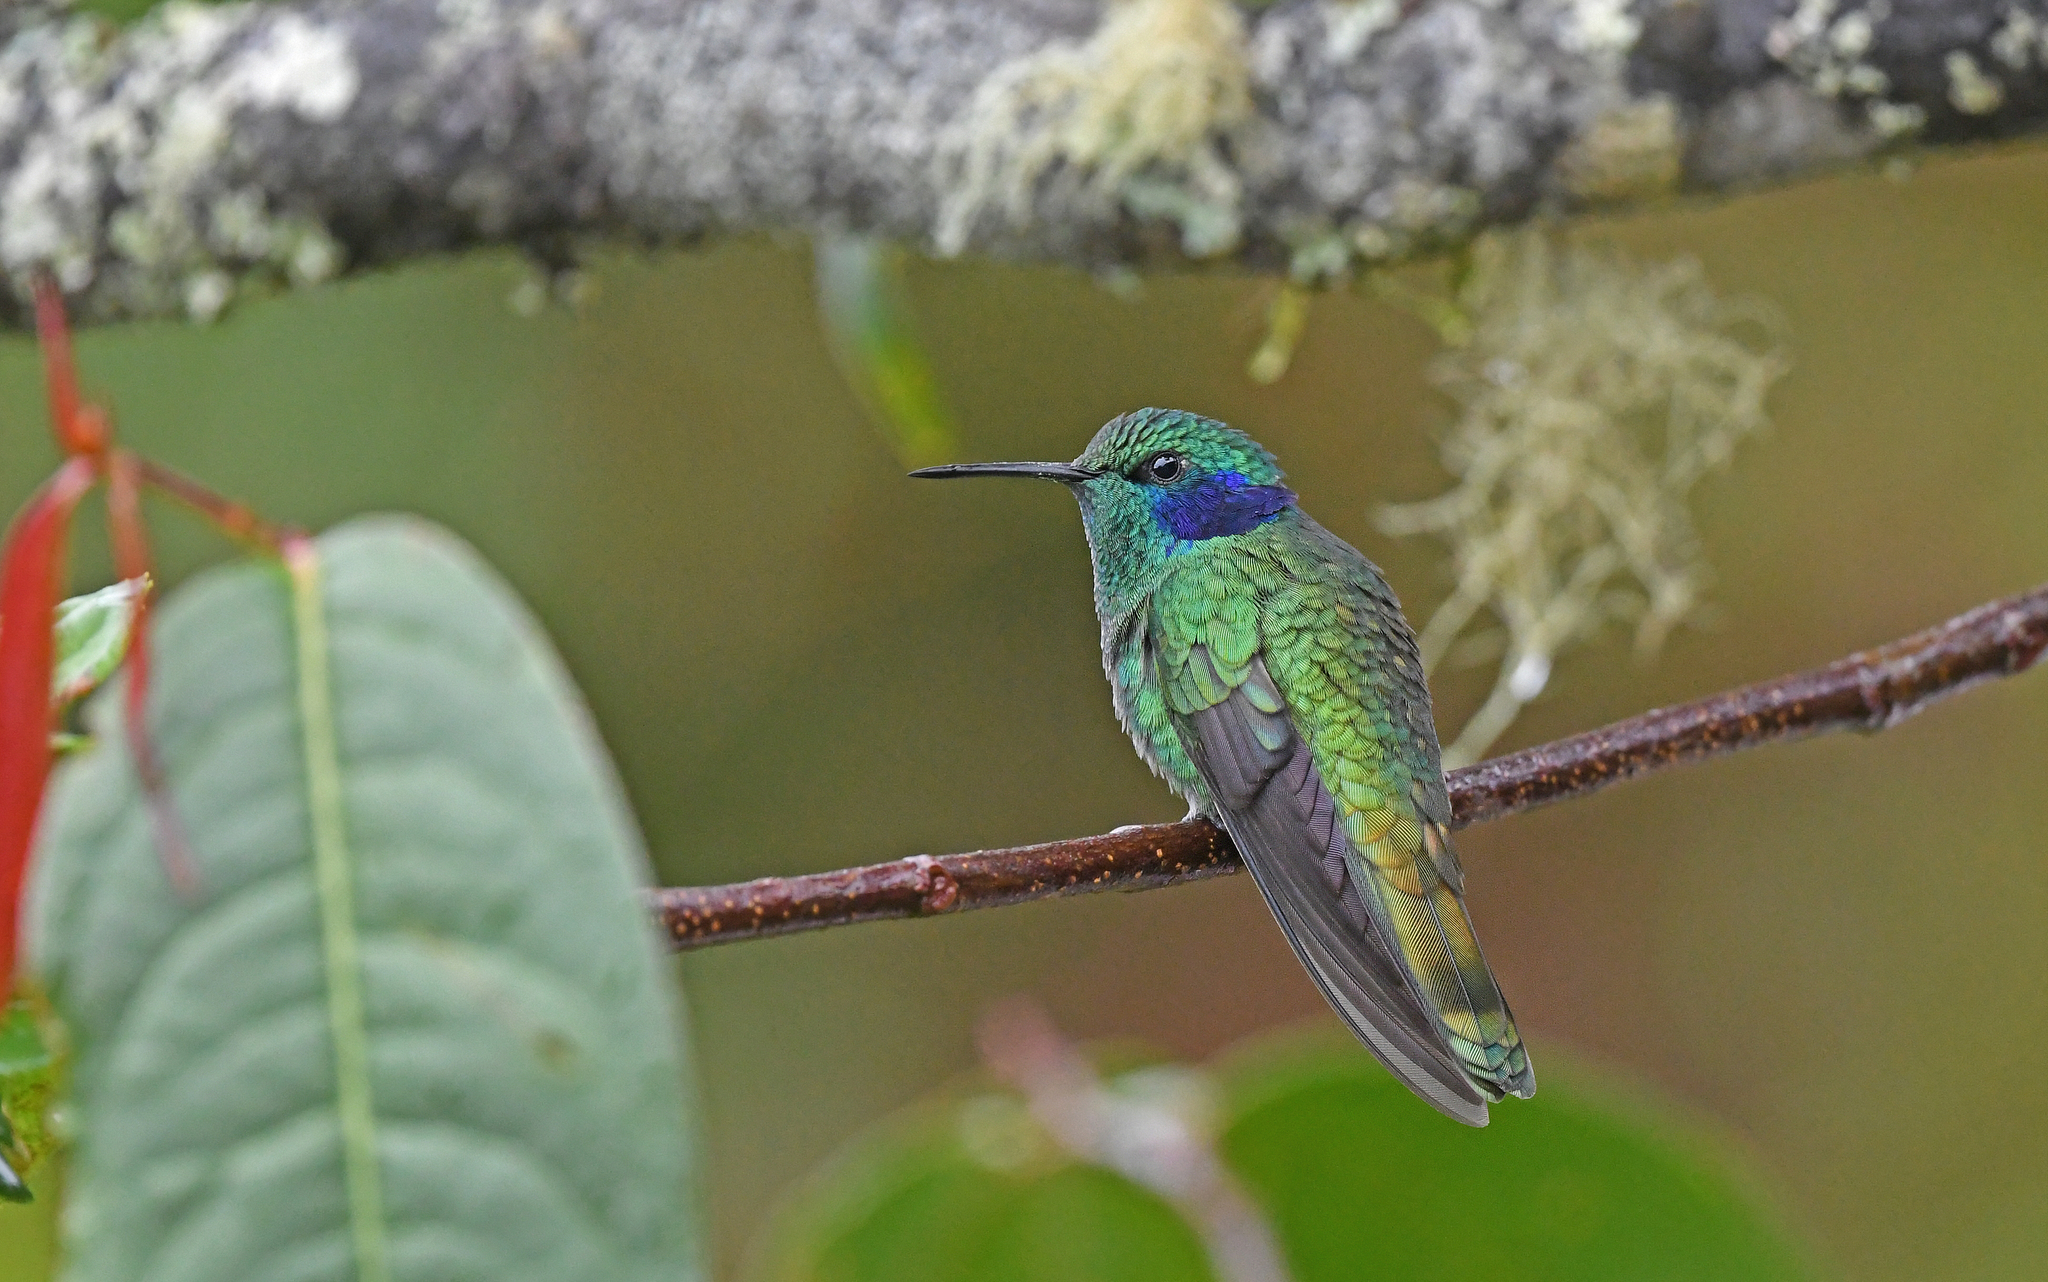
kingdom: Animalia
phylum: Chordata
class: Aves
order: Apodiformes
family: Trochilidae
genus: Colibri
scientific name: Colibri cyanotus
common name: Lesser violetear
